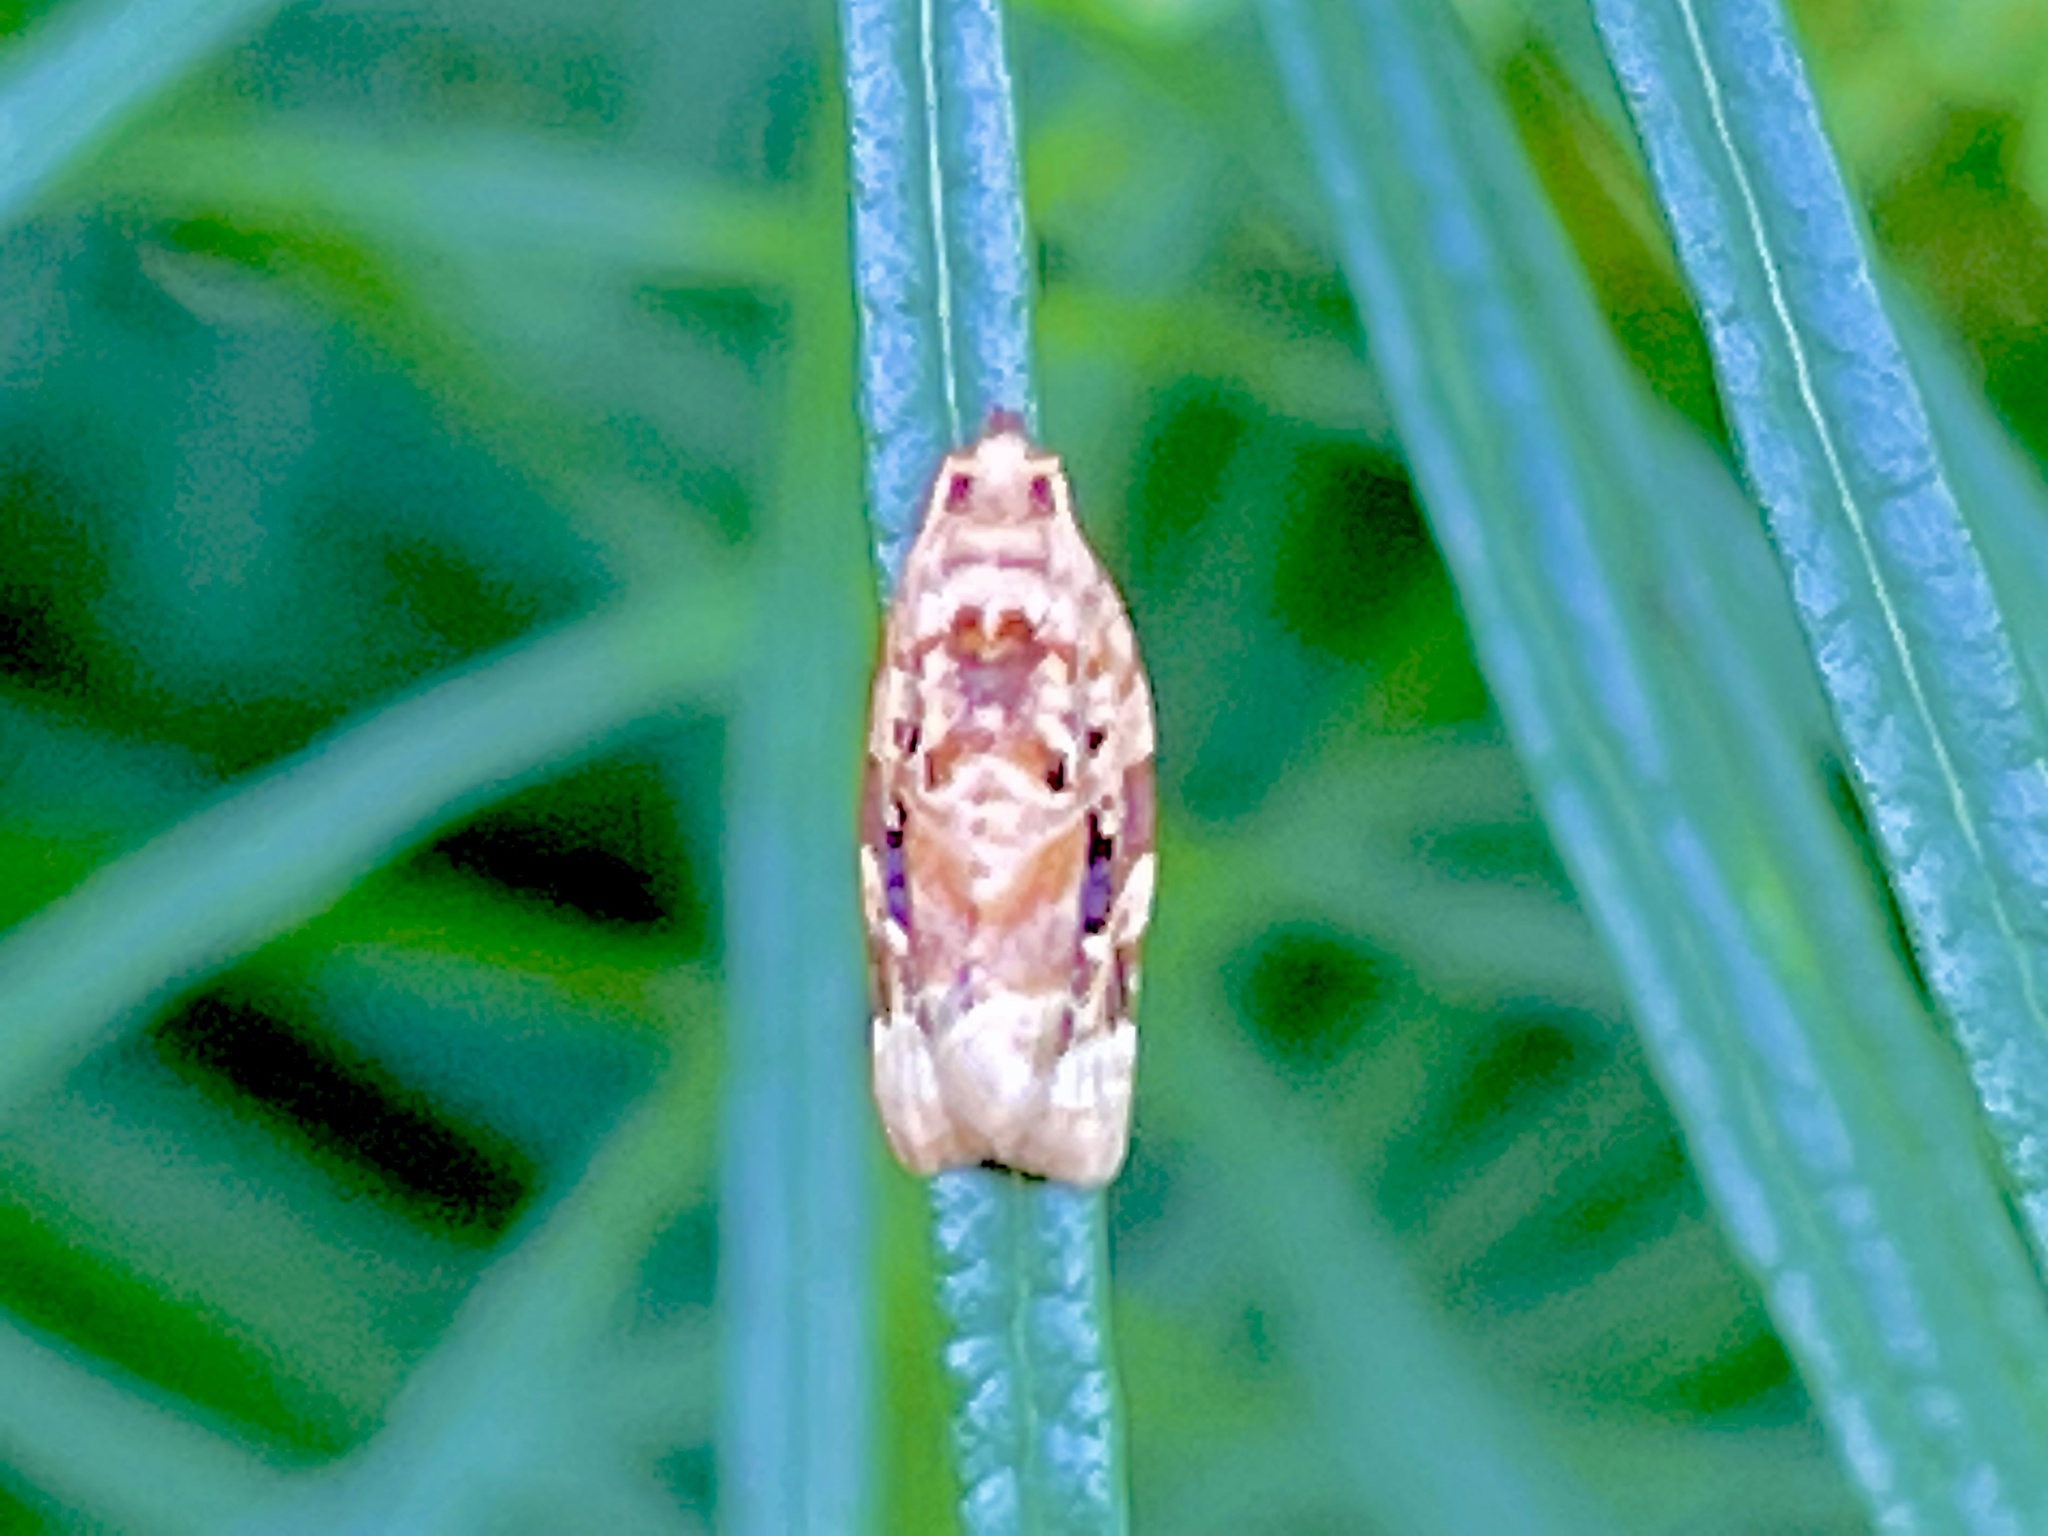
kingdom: Animalia
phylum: Arthropoda
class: Insecta
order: Lepidoptera
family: Tortricidae
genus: Argyrotaenia
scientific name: Argyrotaenia velutinana
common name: Red-banded leafroller moth
